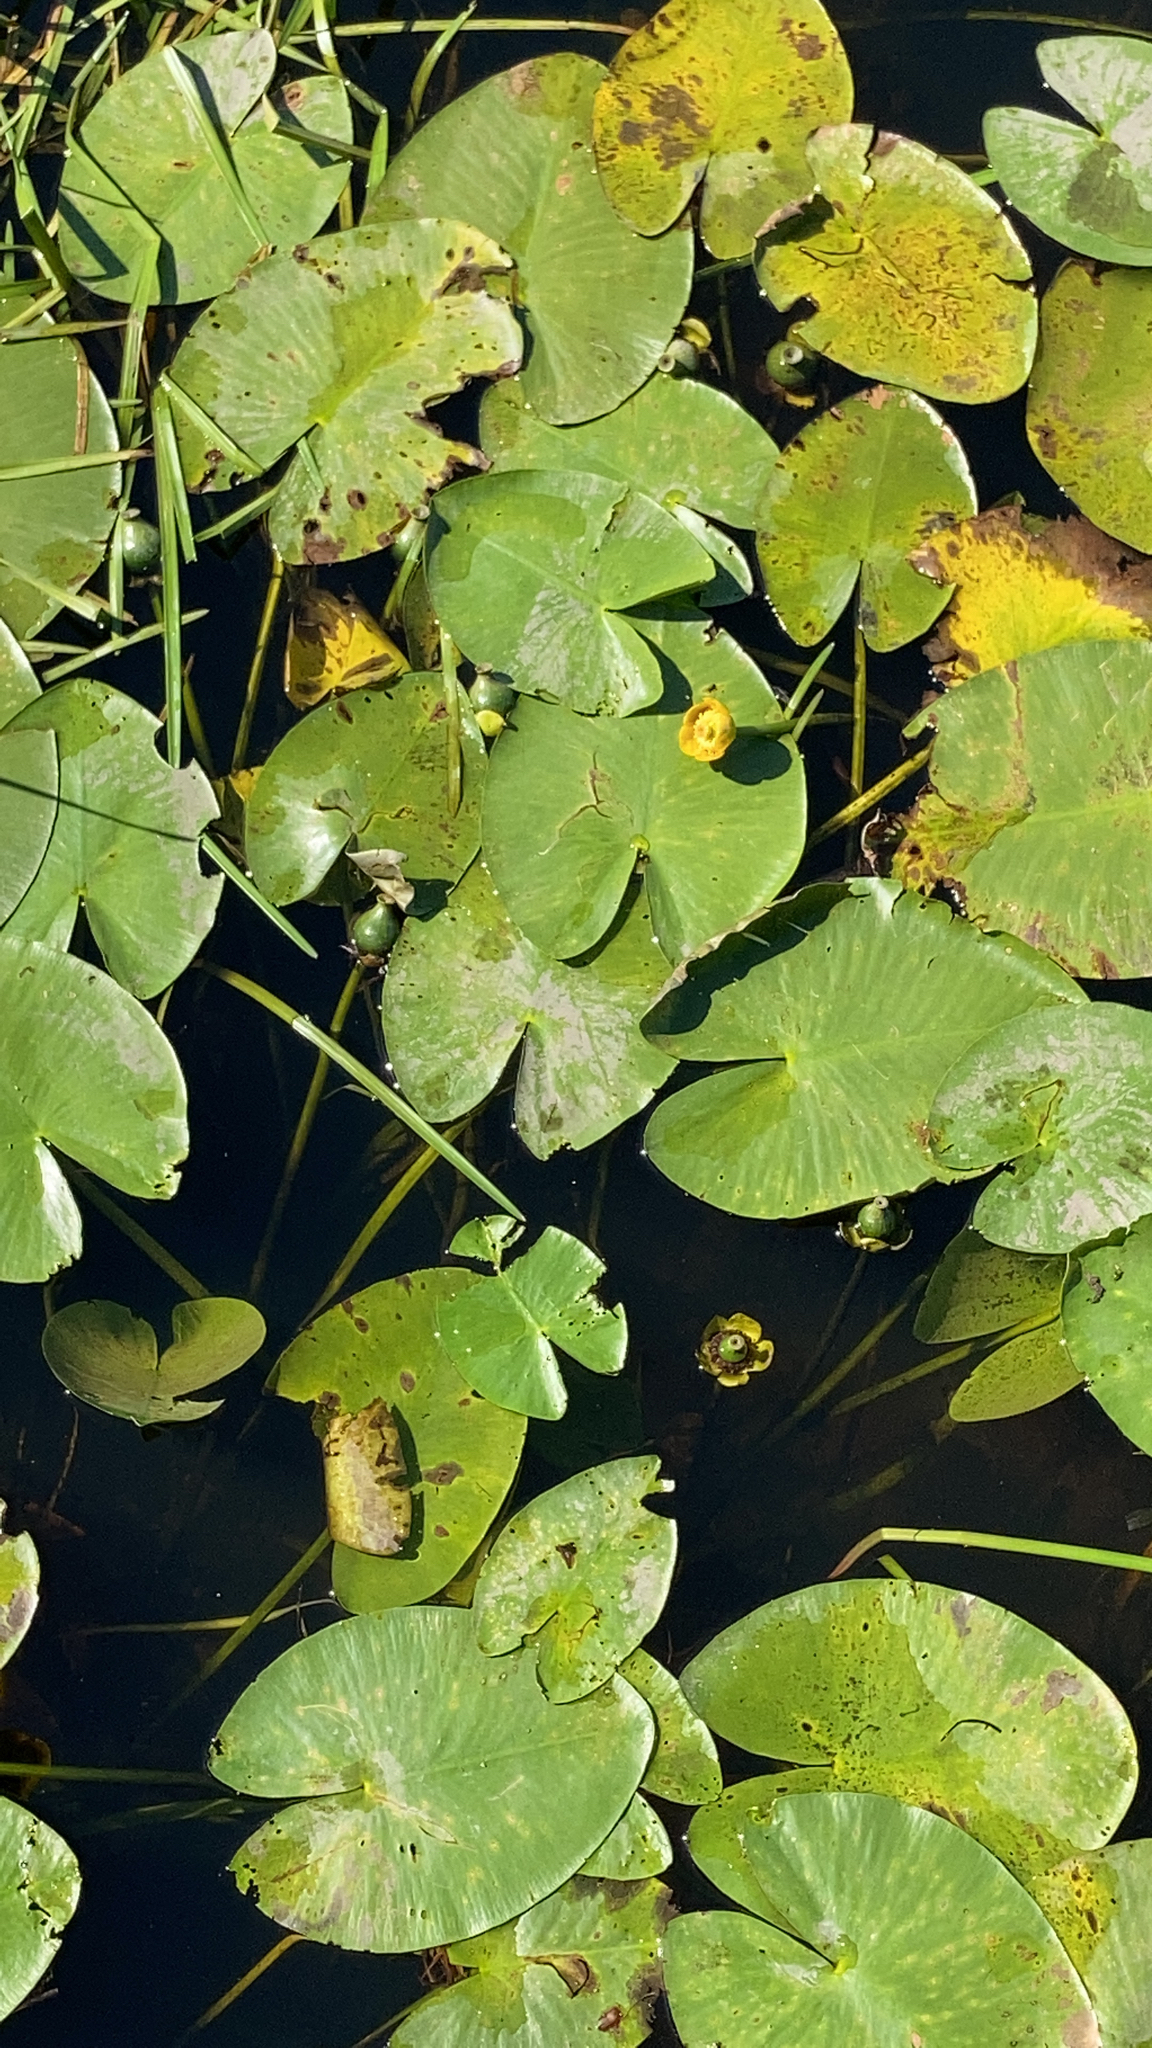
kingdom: Plantae
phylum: Tracheophyta
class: Magnoliopsida
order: Nymphaeales
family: Nymphaeaceae
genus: Nuphar
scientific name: Nuphar lutea
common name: Yellow water-lily
